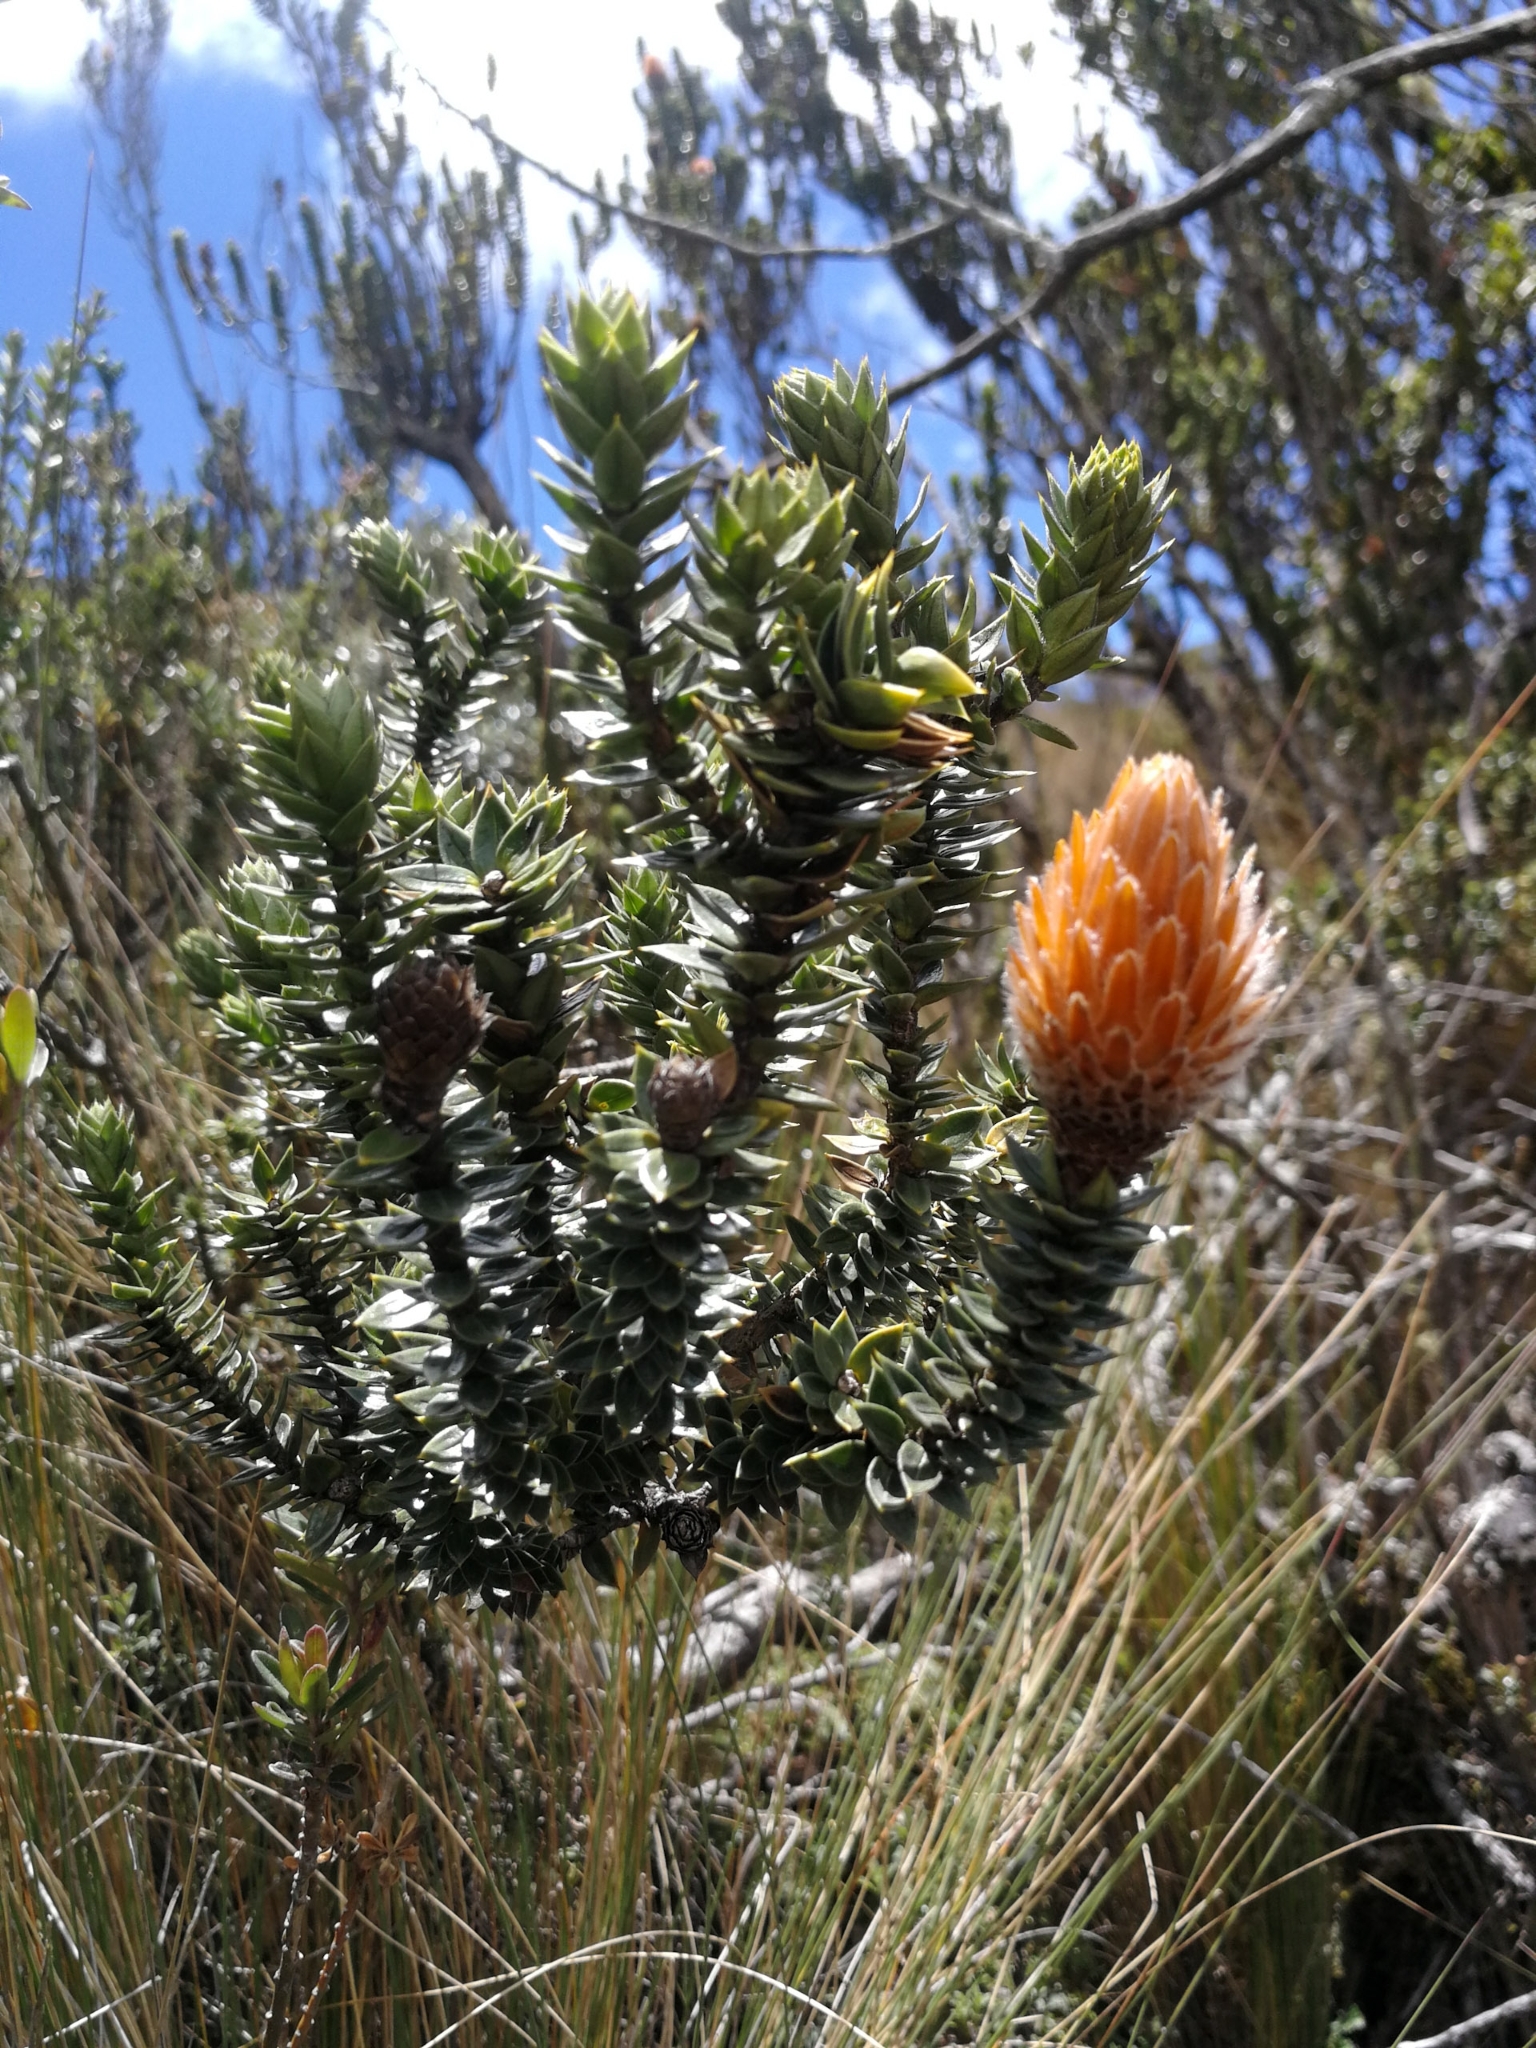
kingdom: Plantae
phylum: Tracheophyta
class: Magnoliopsida
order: Asterales
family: Asteraceae
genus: Chuquiraga
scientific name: Chuquiraga jussieui
